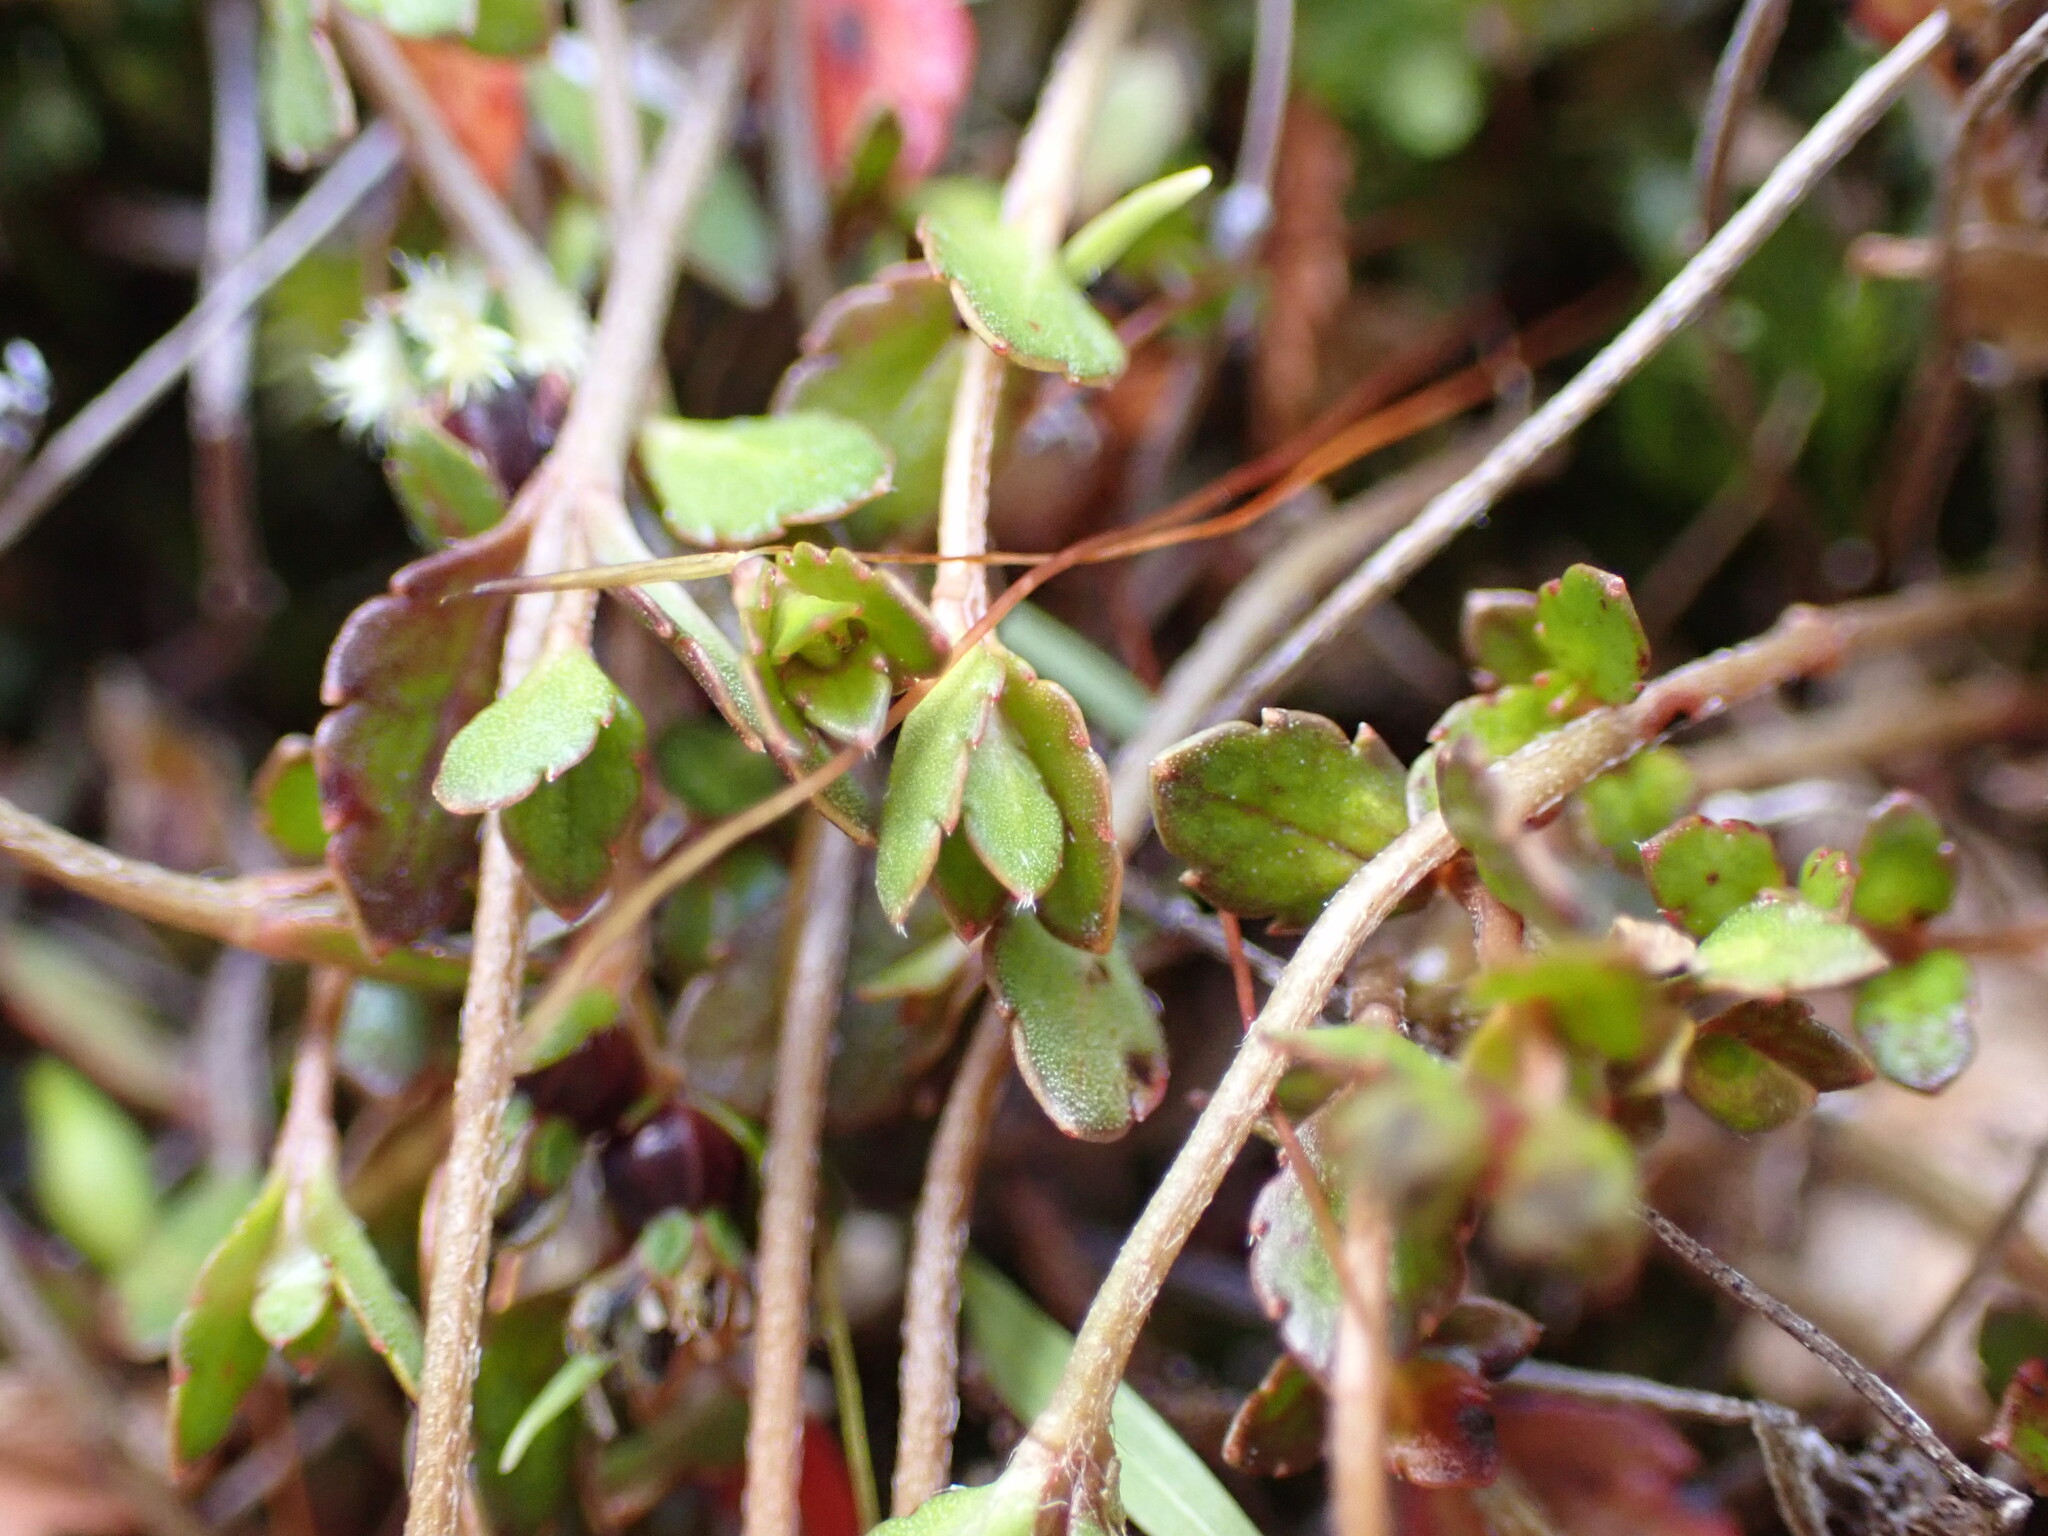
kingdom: Plantae
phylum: Tracheophyta
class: Magnoliopsida
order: Saxifragales
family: Haloragaceae
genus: Gonocarpus
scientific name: Gonocarpus aggregatus
